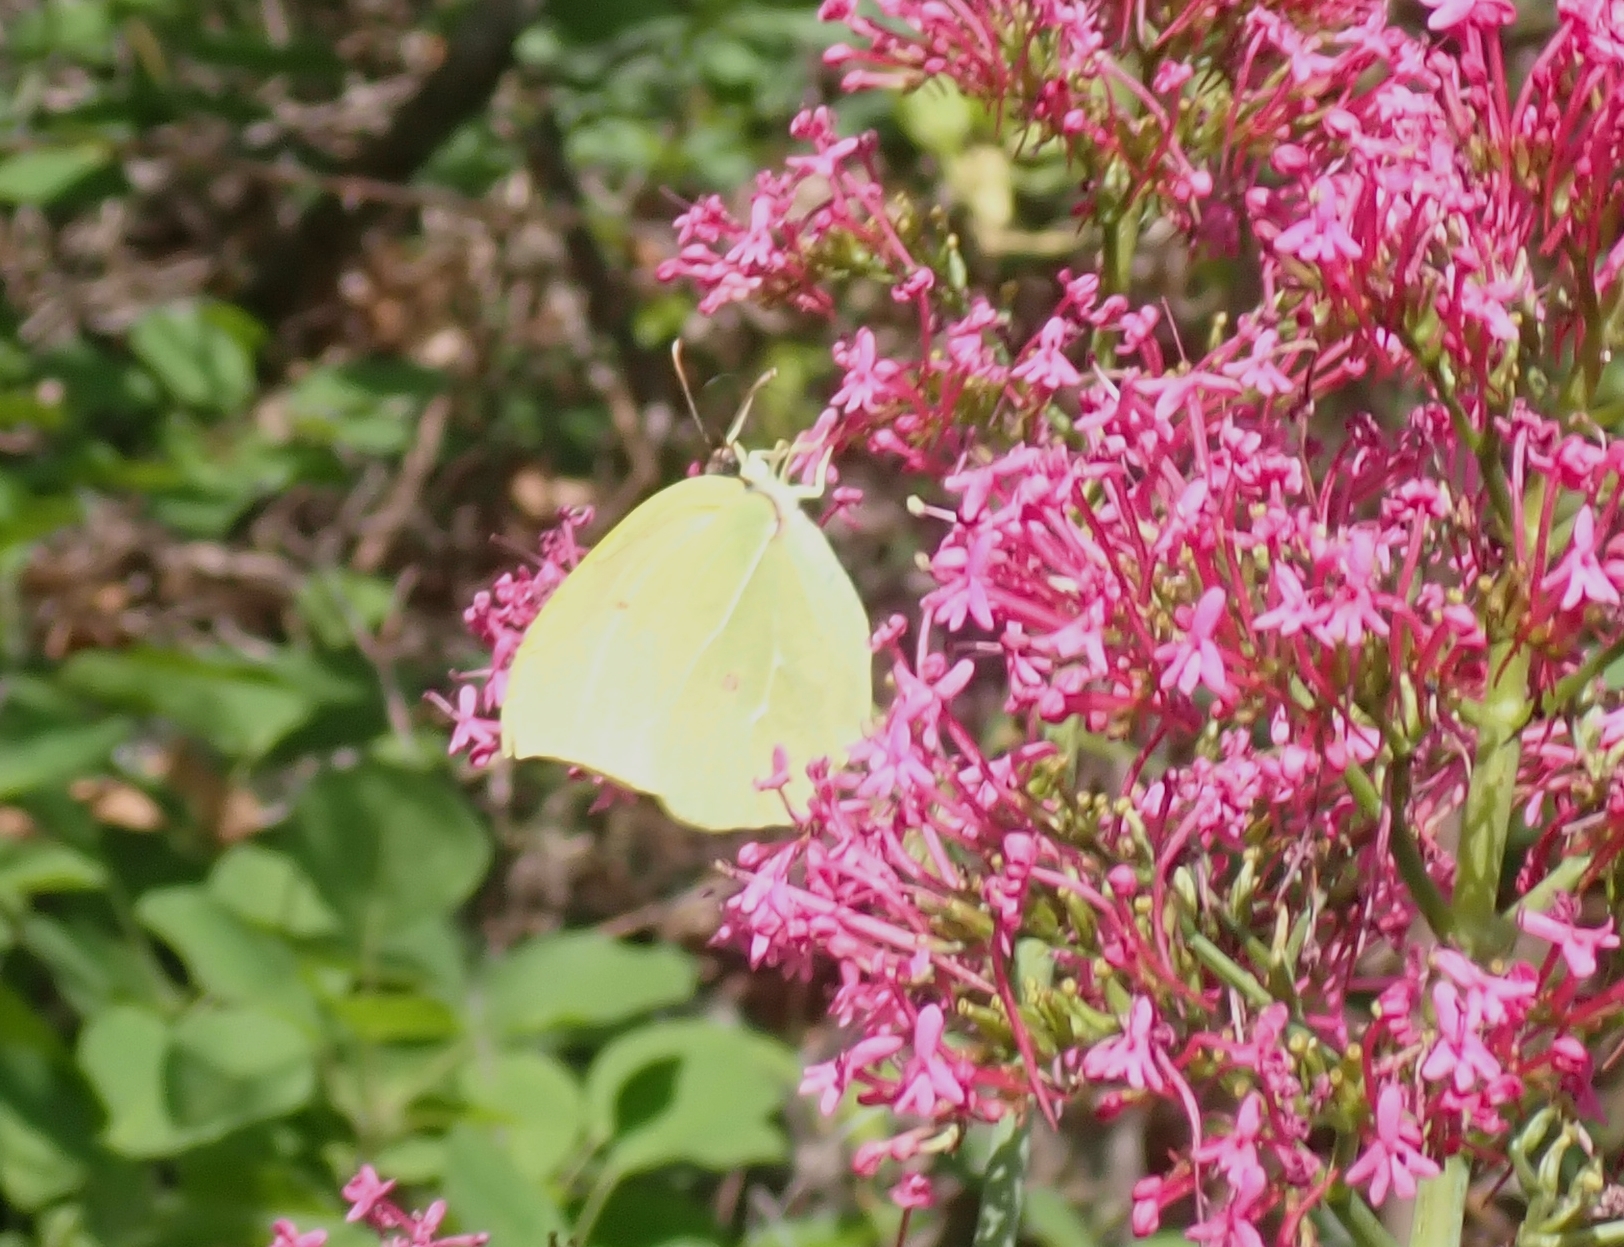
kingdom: Animalia
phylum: Arthropoda
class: Insecta
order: Lepidoptera
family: Pieridae
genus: Gonepteryx
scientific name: Gonepteryx cleopatra
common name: Cleopatra
